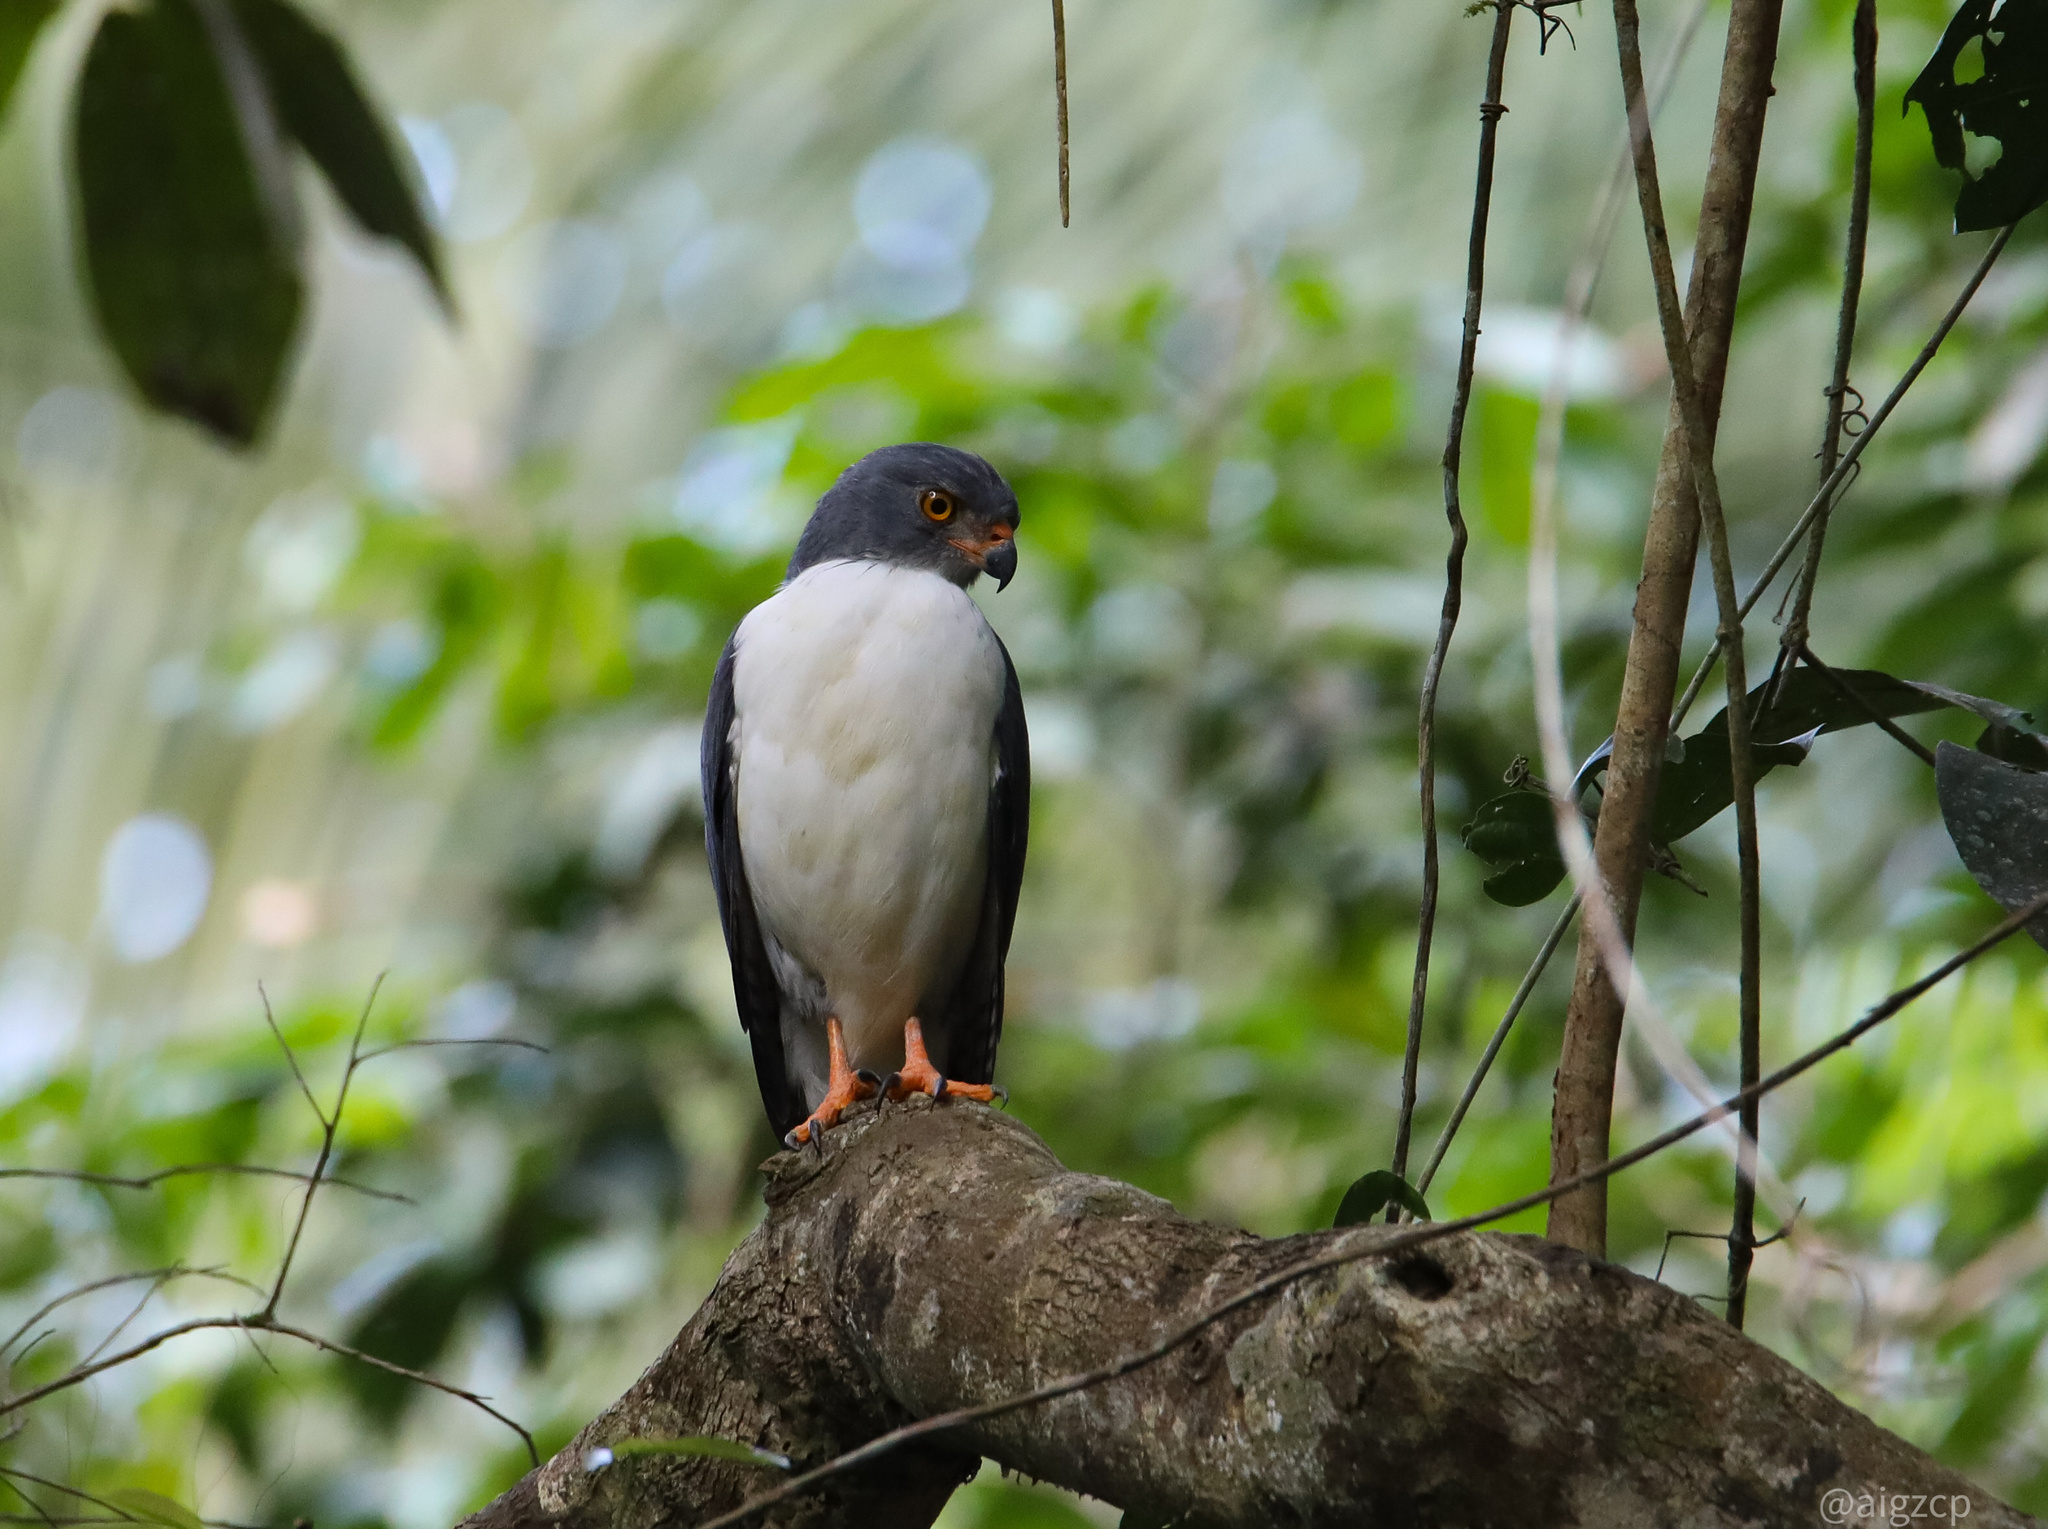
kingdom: Animalia
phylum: Chordata
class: Aves
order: Accipitriformes
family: Accipitridae
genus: Leucopternis
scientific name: Leucopternis semiplumbeus
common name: Semiplumbeous hawk
